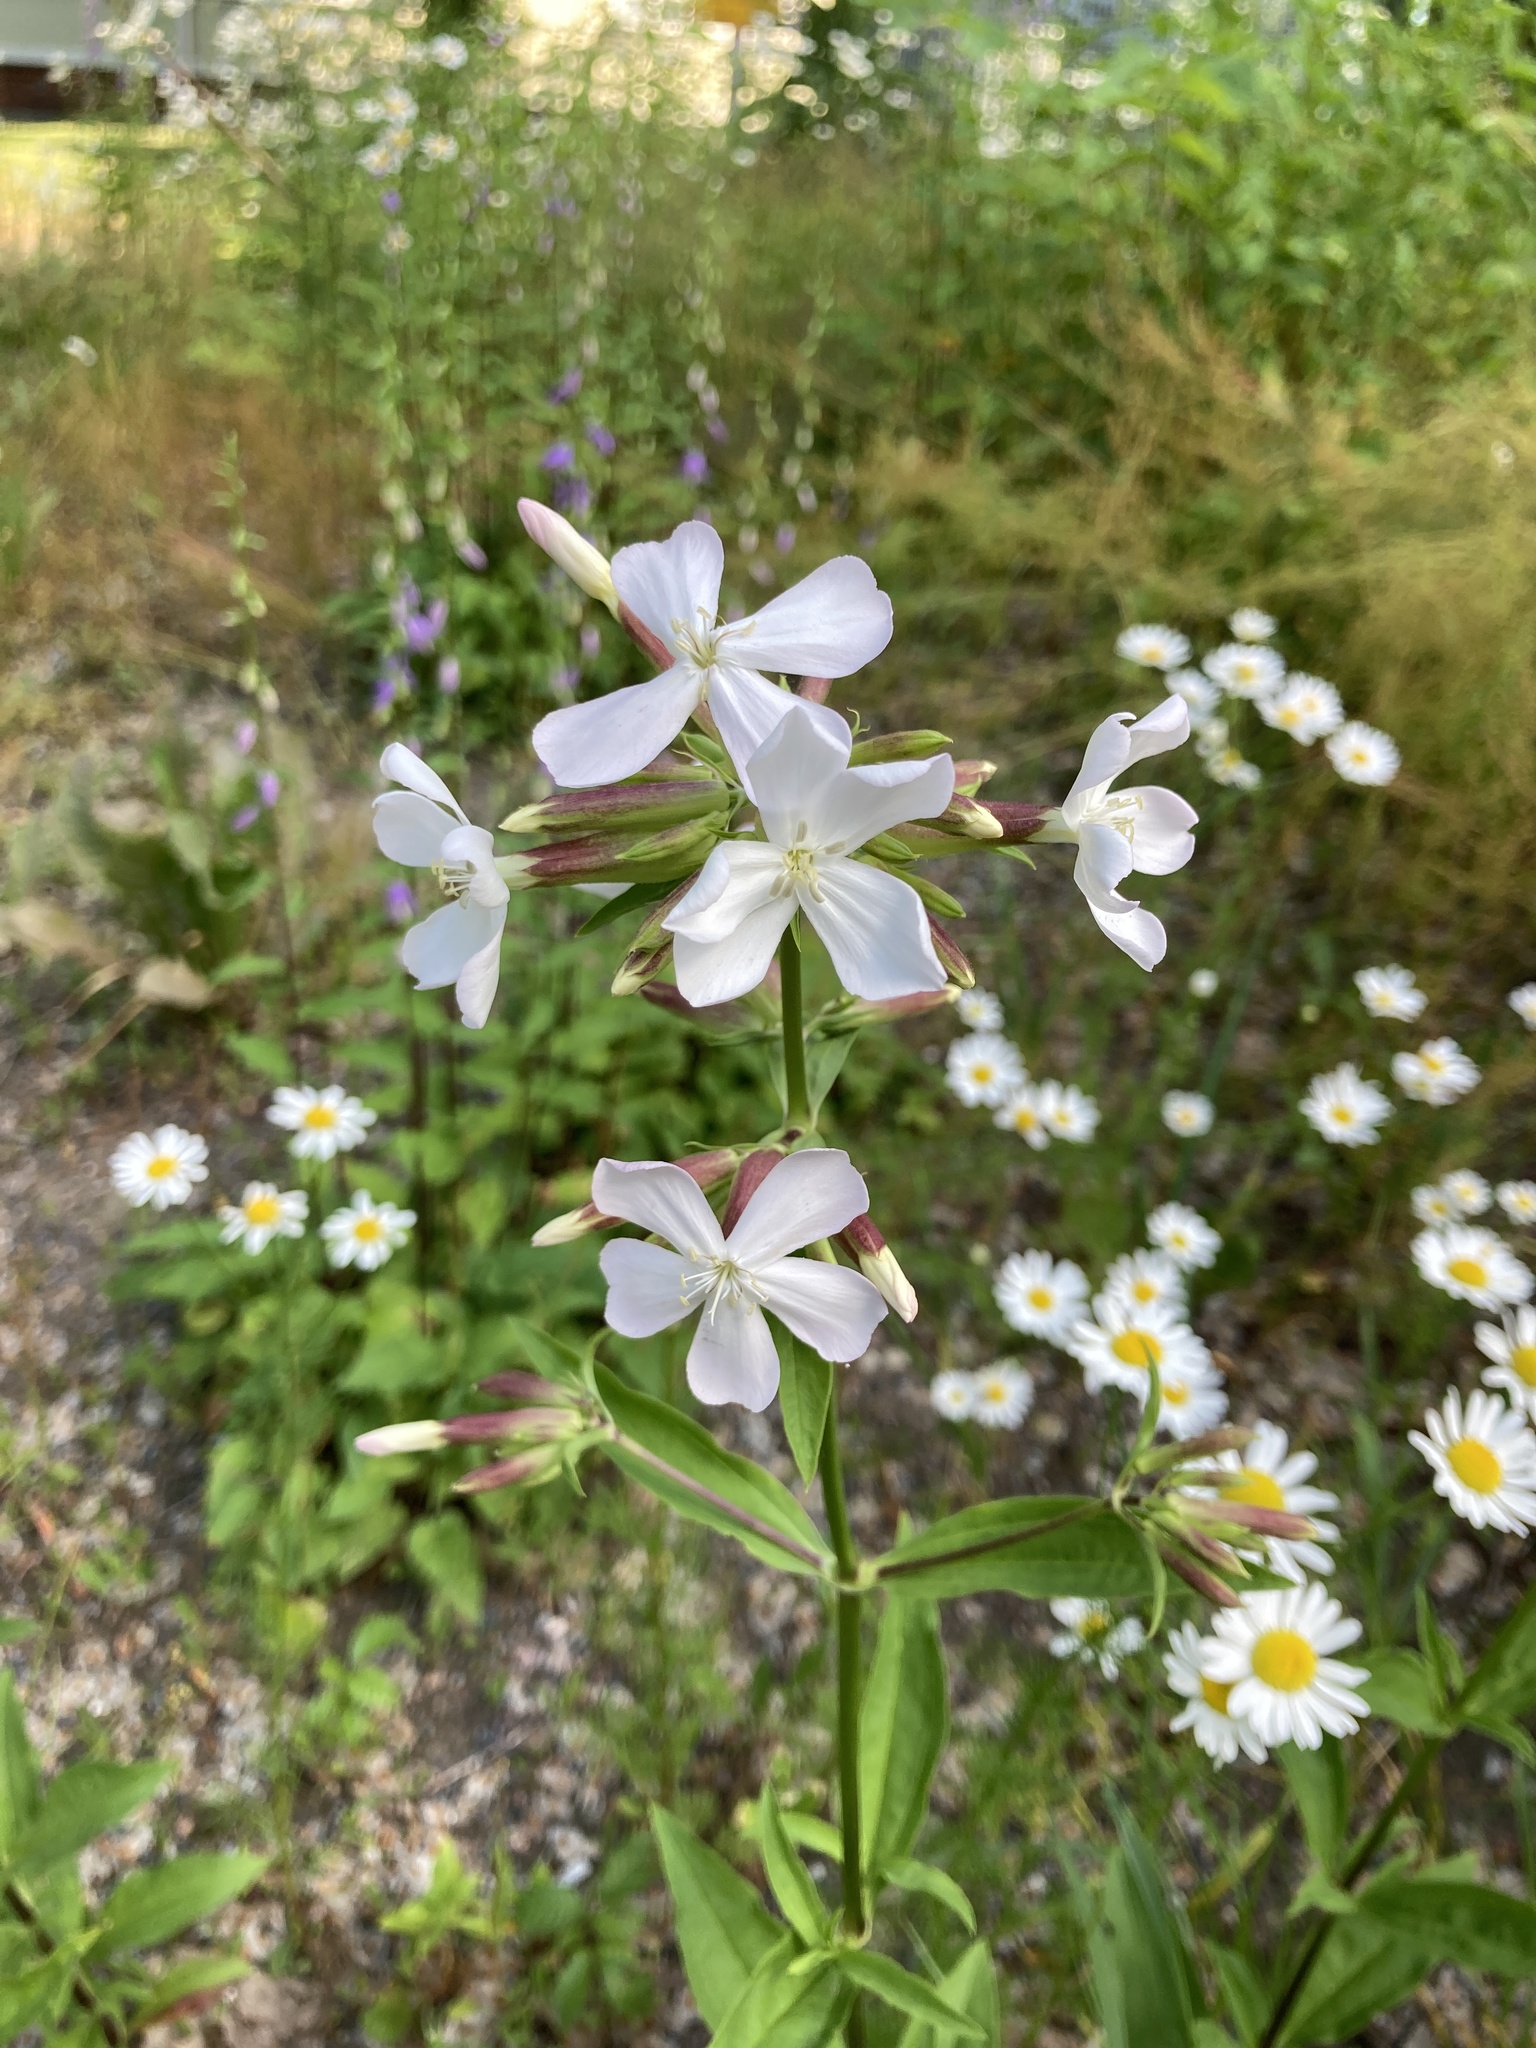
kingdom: Plantae
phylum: Tracheophyta
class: Magnoliopsida
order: Caryophyllales
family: Caryophyllaceae
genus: Saponaria
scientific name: Saponaria officinalis
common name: Soapwort
